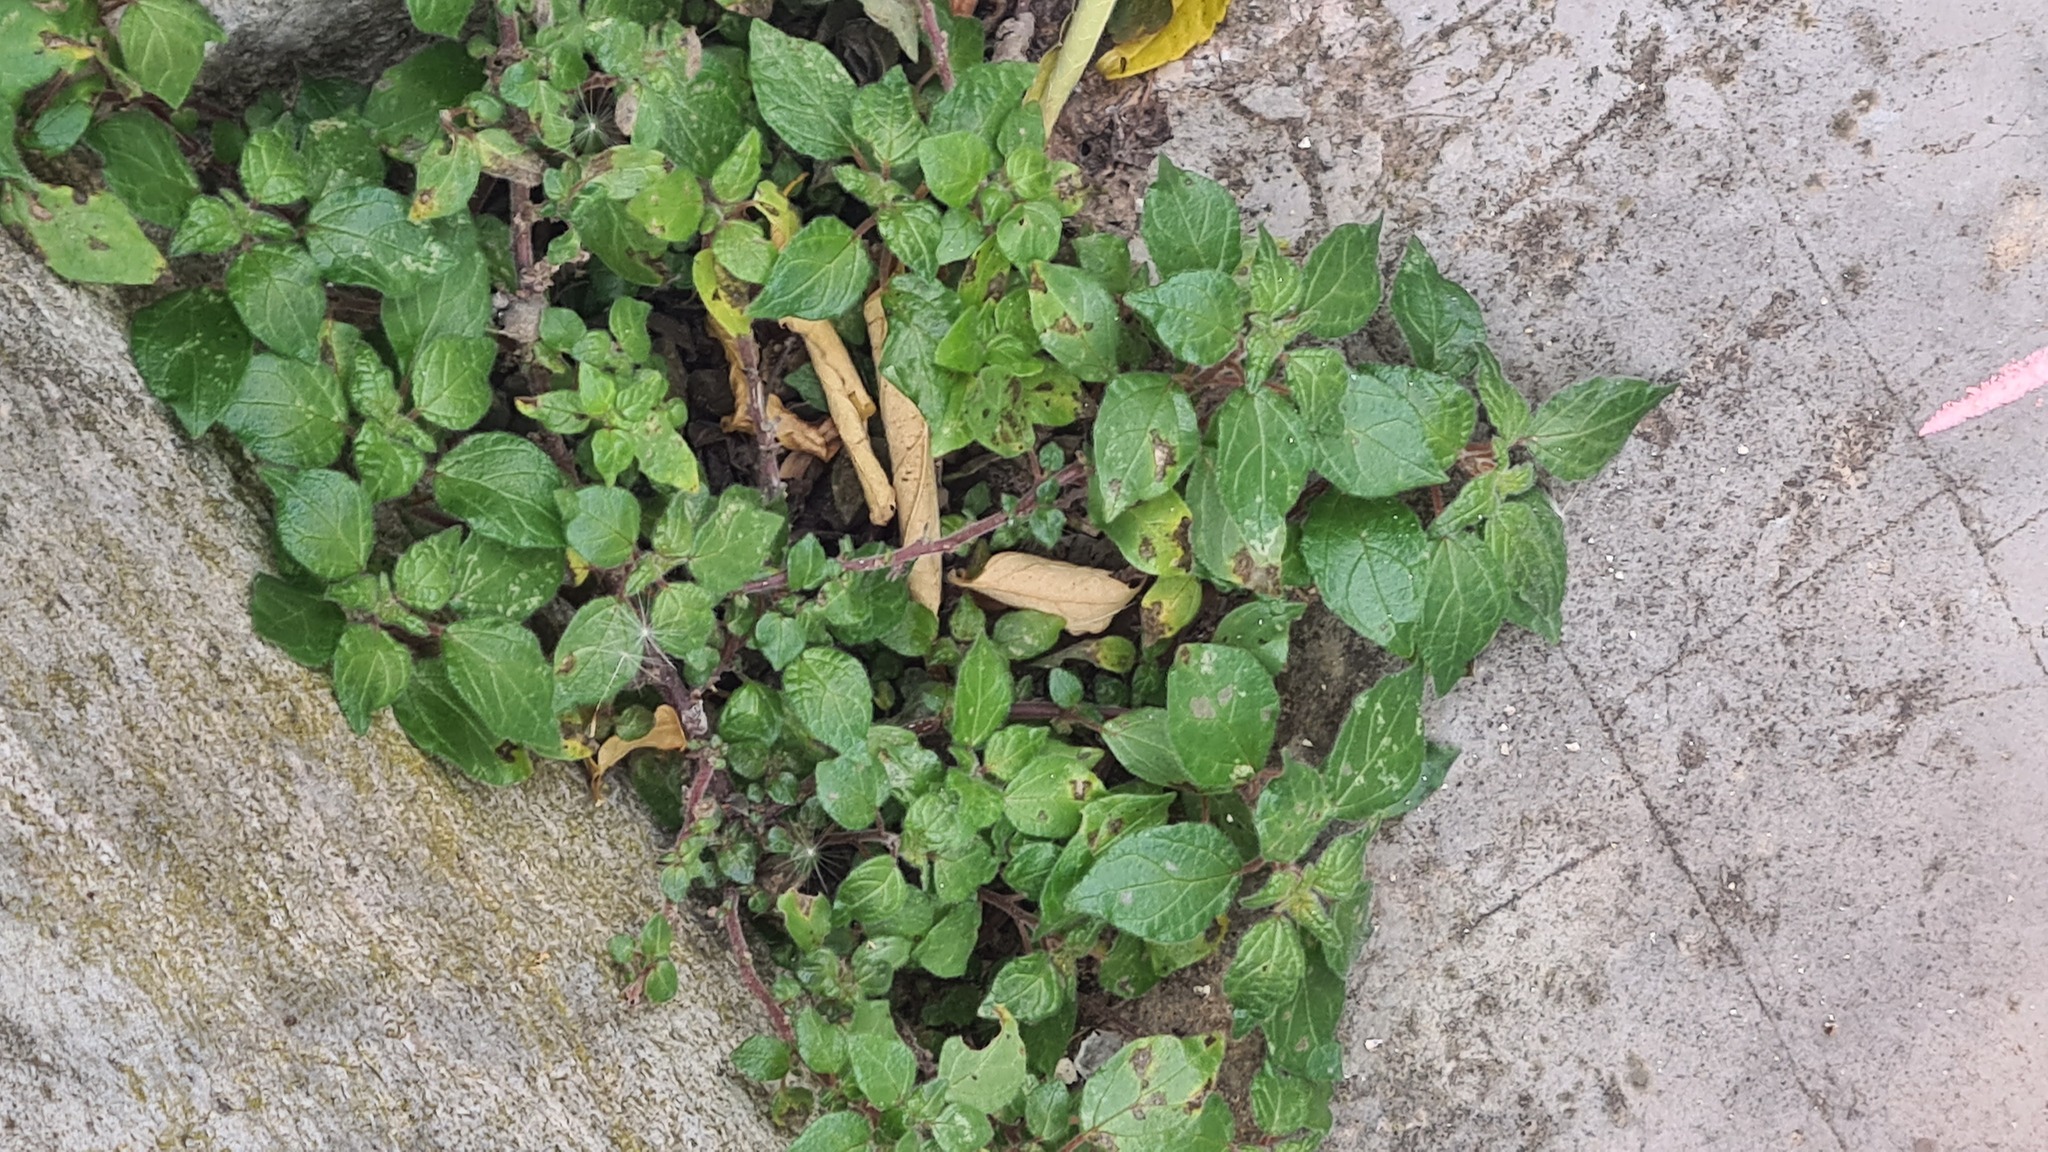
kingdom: Plantae
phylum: Tracheophyta
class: Magnoliopsida
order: Rosales
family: Urticaceae
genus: Parietaria
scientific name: Parietaria judaica
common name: Pellitory-of-the-wall
